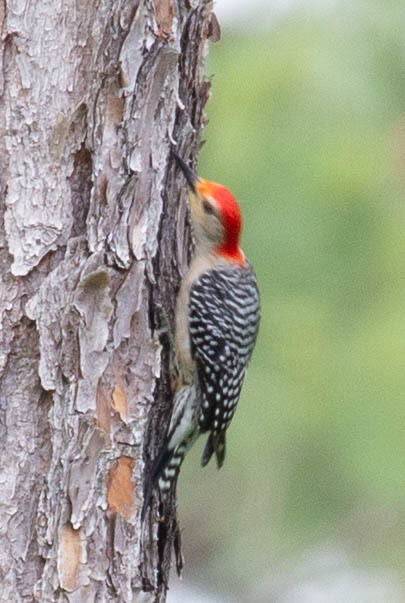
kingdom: Animalia
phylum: Chordata
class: Aves
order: Piciformes
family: Picidae
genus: Melanerpes
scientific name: Melanerpes carolinus
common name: Red-bellied woodpecker
